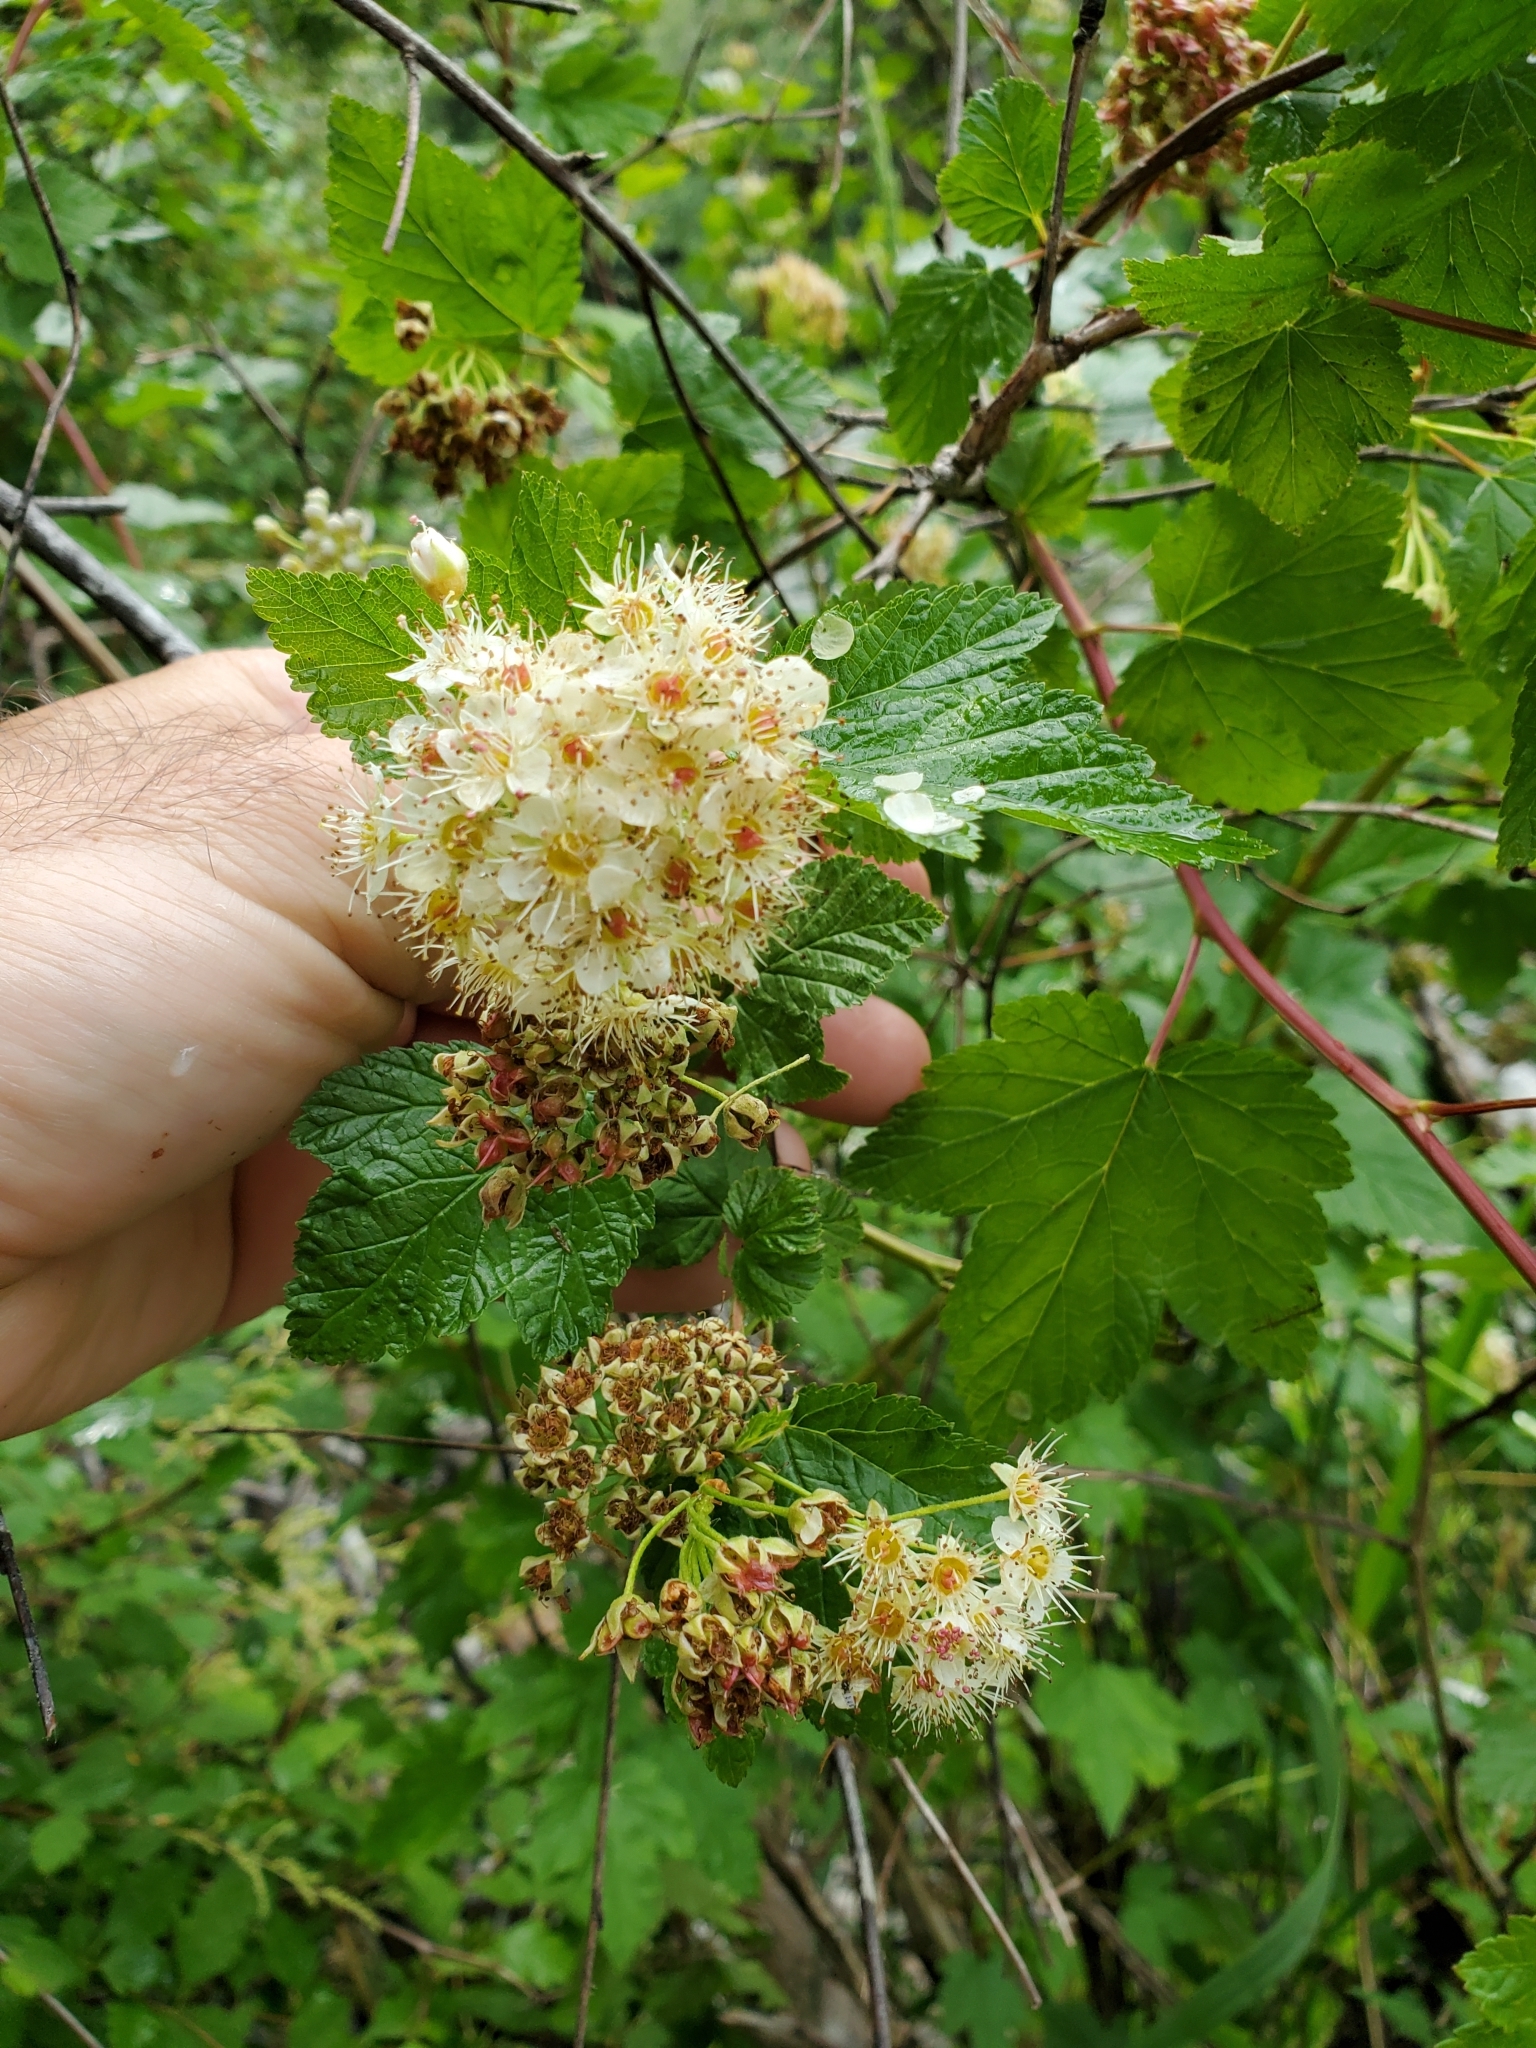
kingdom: Plantae
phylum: Tracheophyta
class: Magnoliopsida
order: Rosales
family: Rosaceae
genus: Physocarpus
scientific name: Physocarpus capitatus
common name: Pacific ninebark
